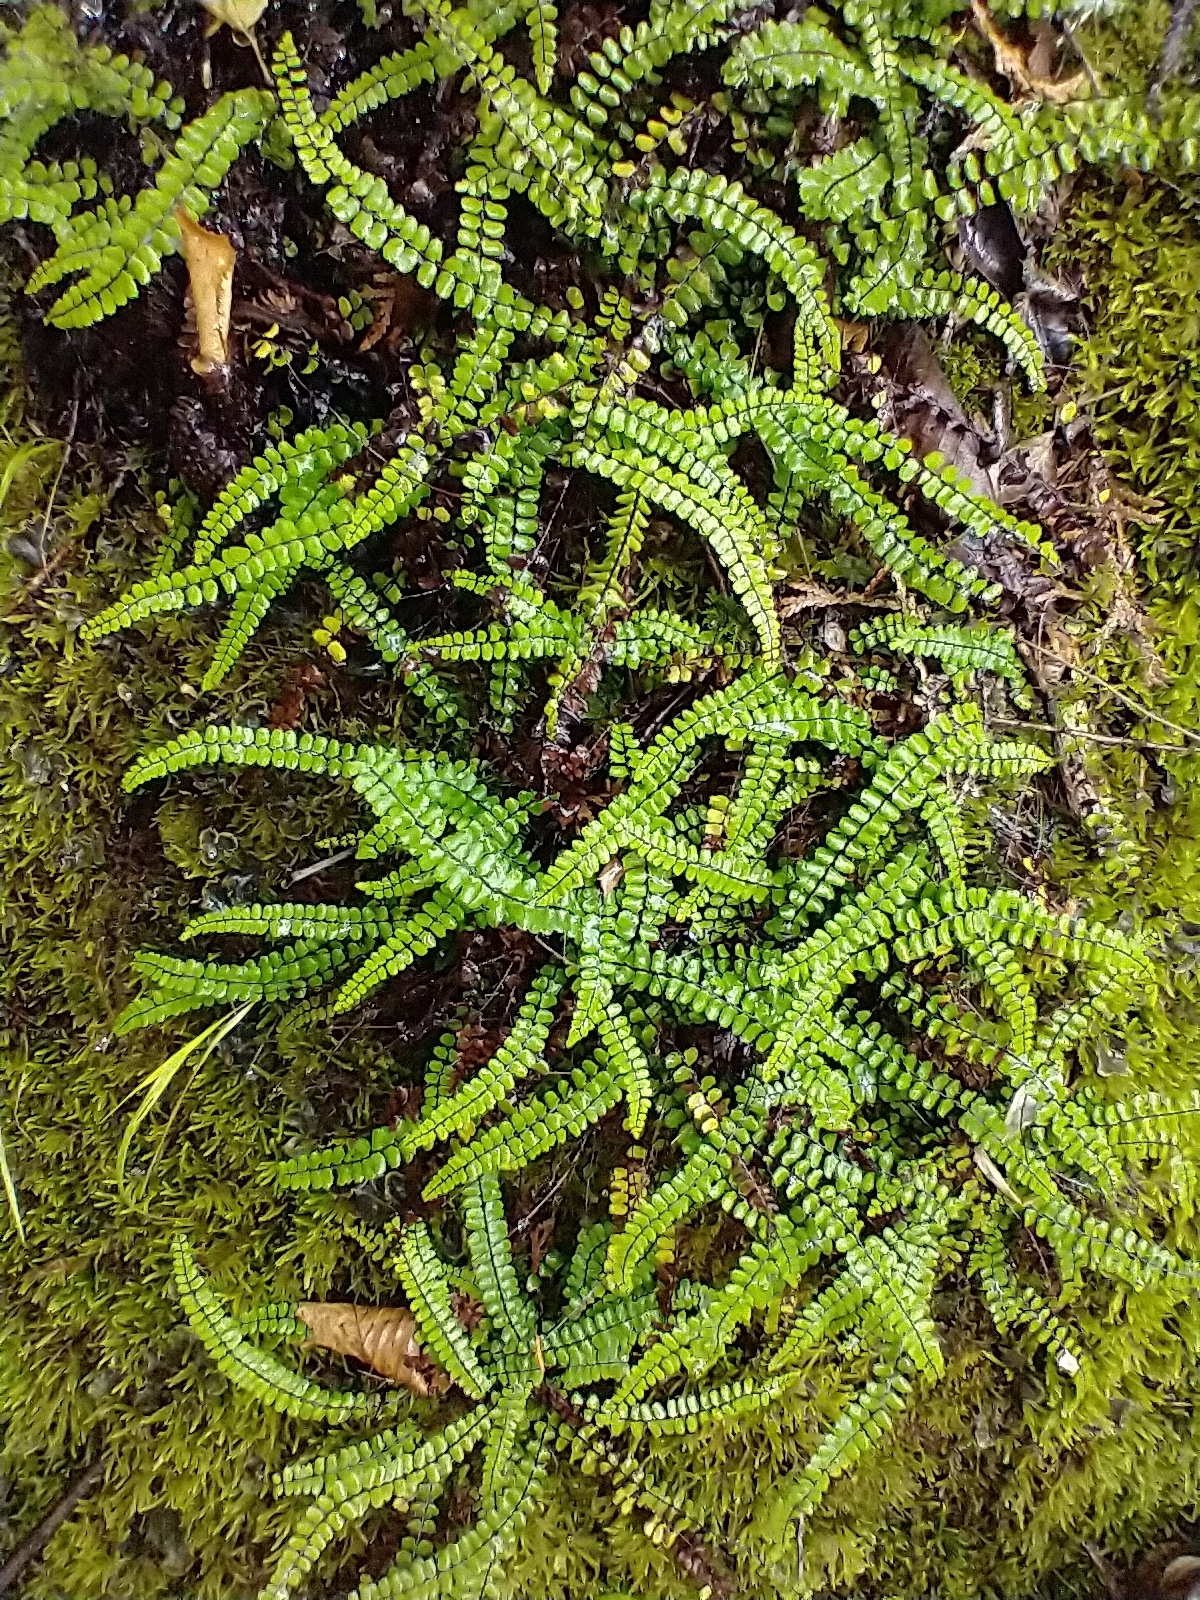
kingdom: Plantae
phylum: Tracheophyta
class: Polypodiopsida
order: Polypodiales
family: Aspleniaceae
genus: Asplenium
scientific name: Asplenium trichomanes
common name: Maidenhair spleenwort
